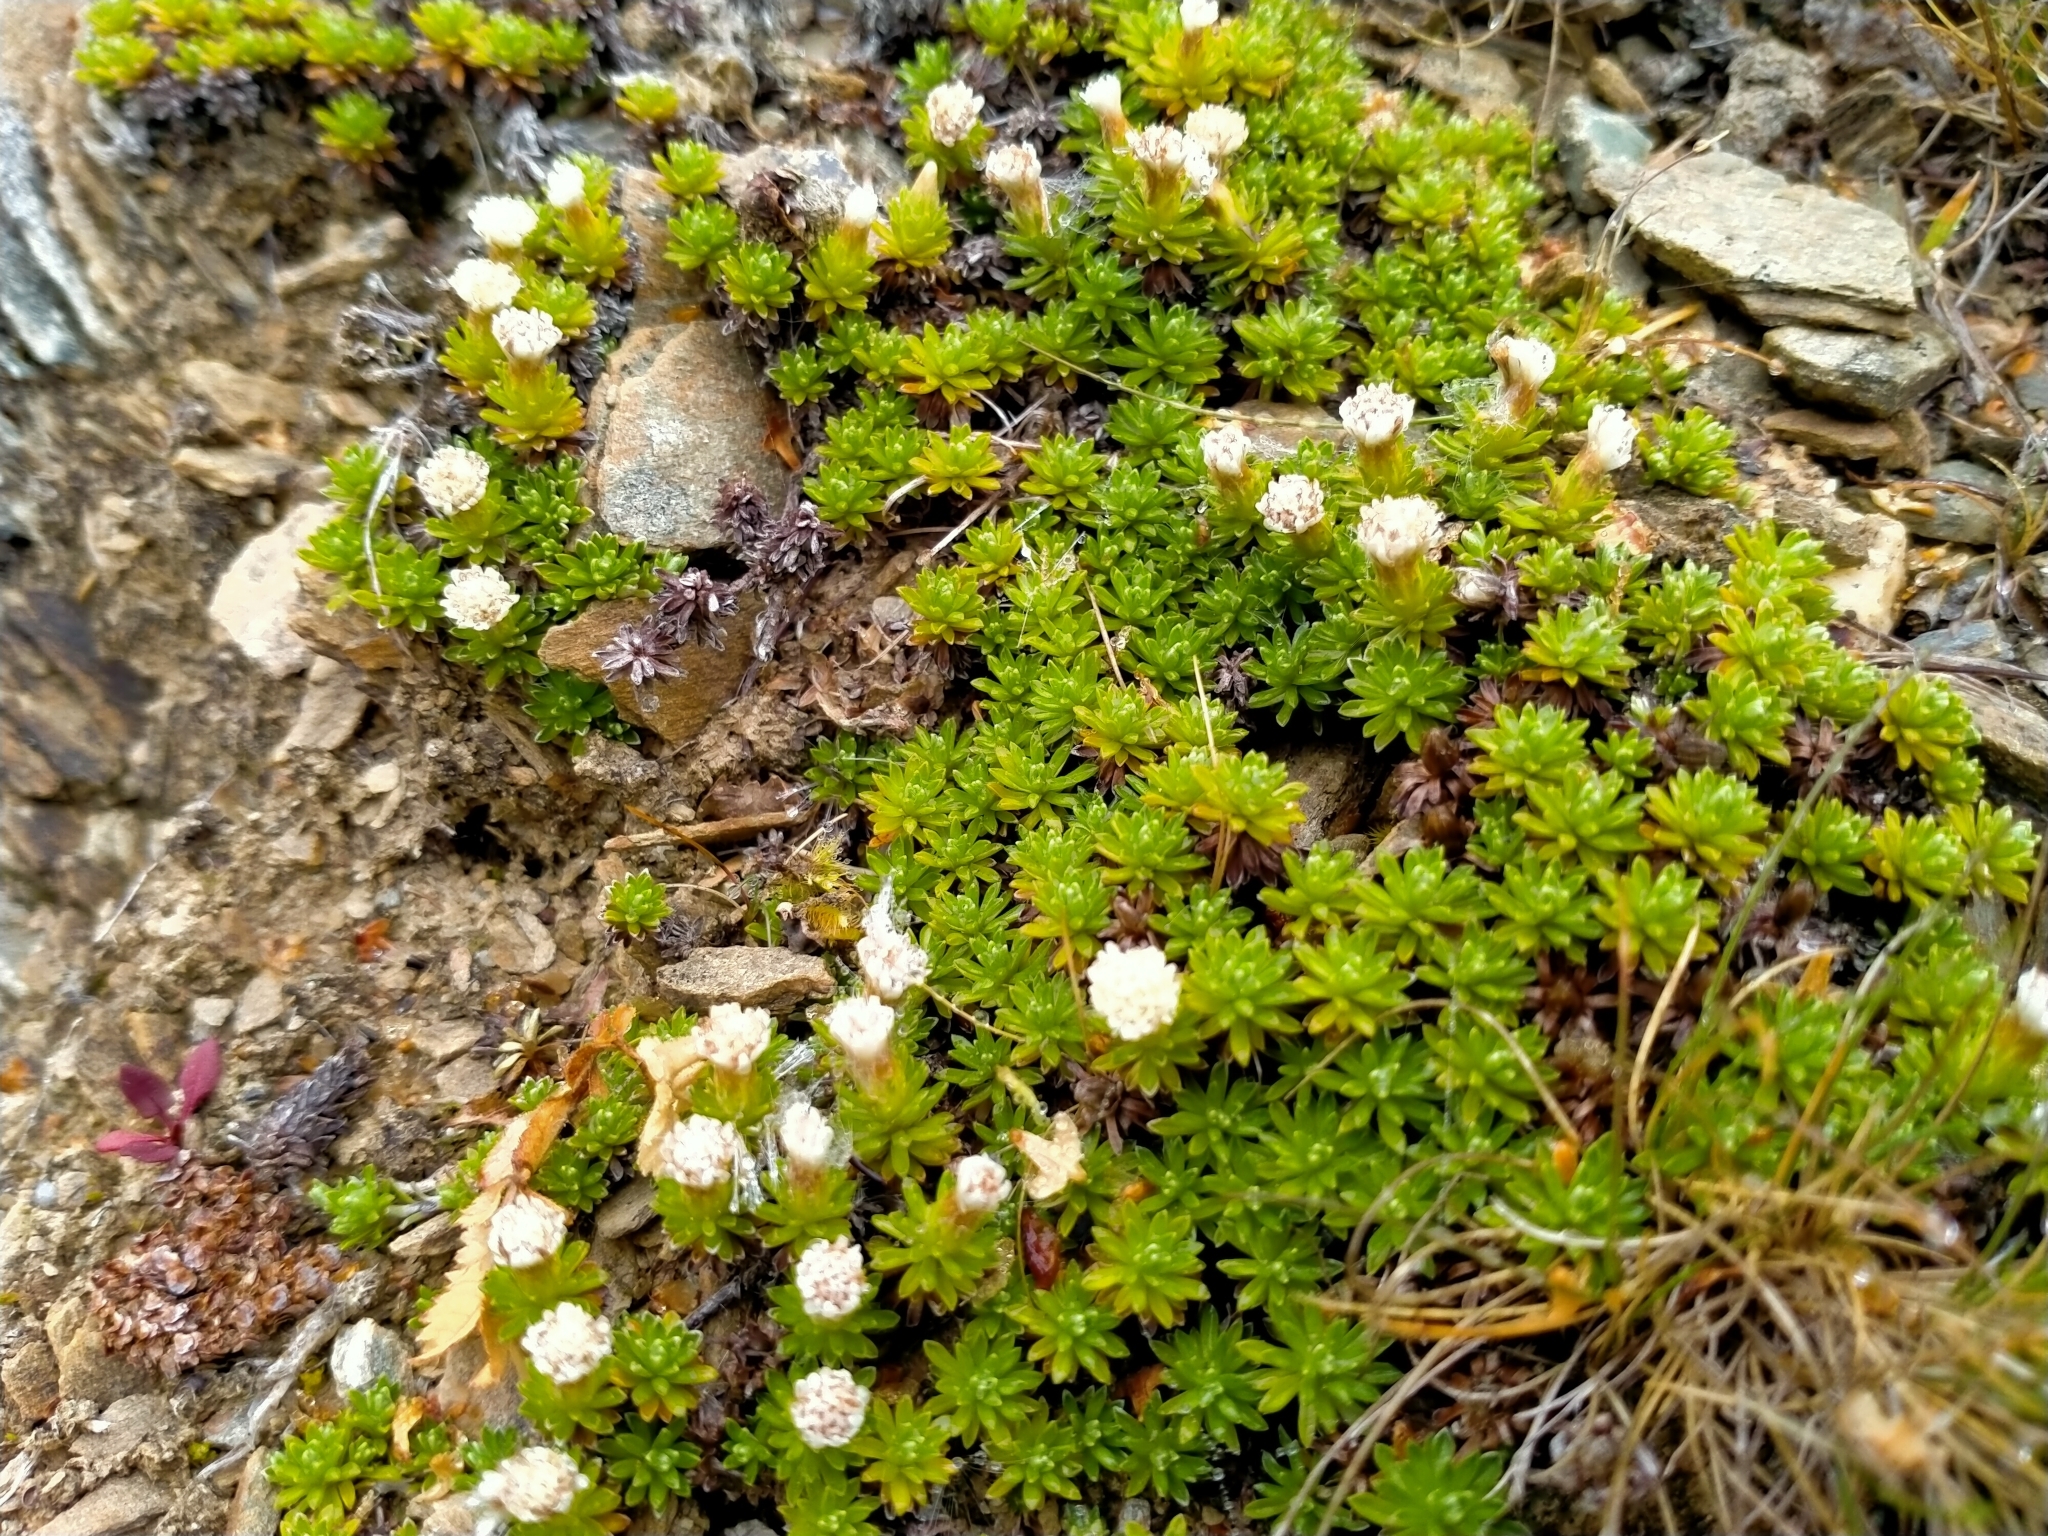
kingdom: Plantae
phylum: Tracheophyta
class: Magnoliopsida
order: Asterales
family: Asteraceae
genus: Raoulia
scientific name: Raoulia subsericea
